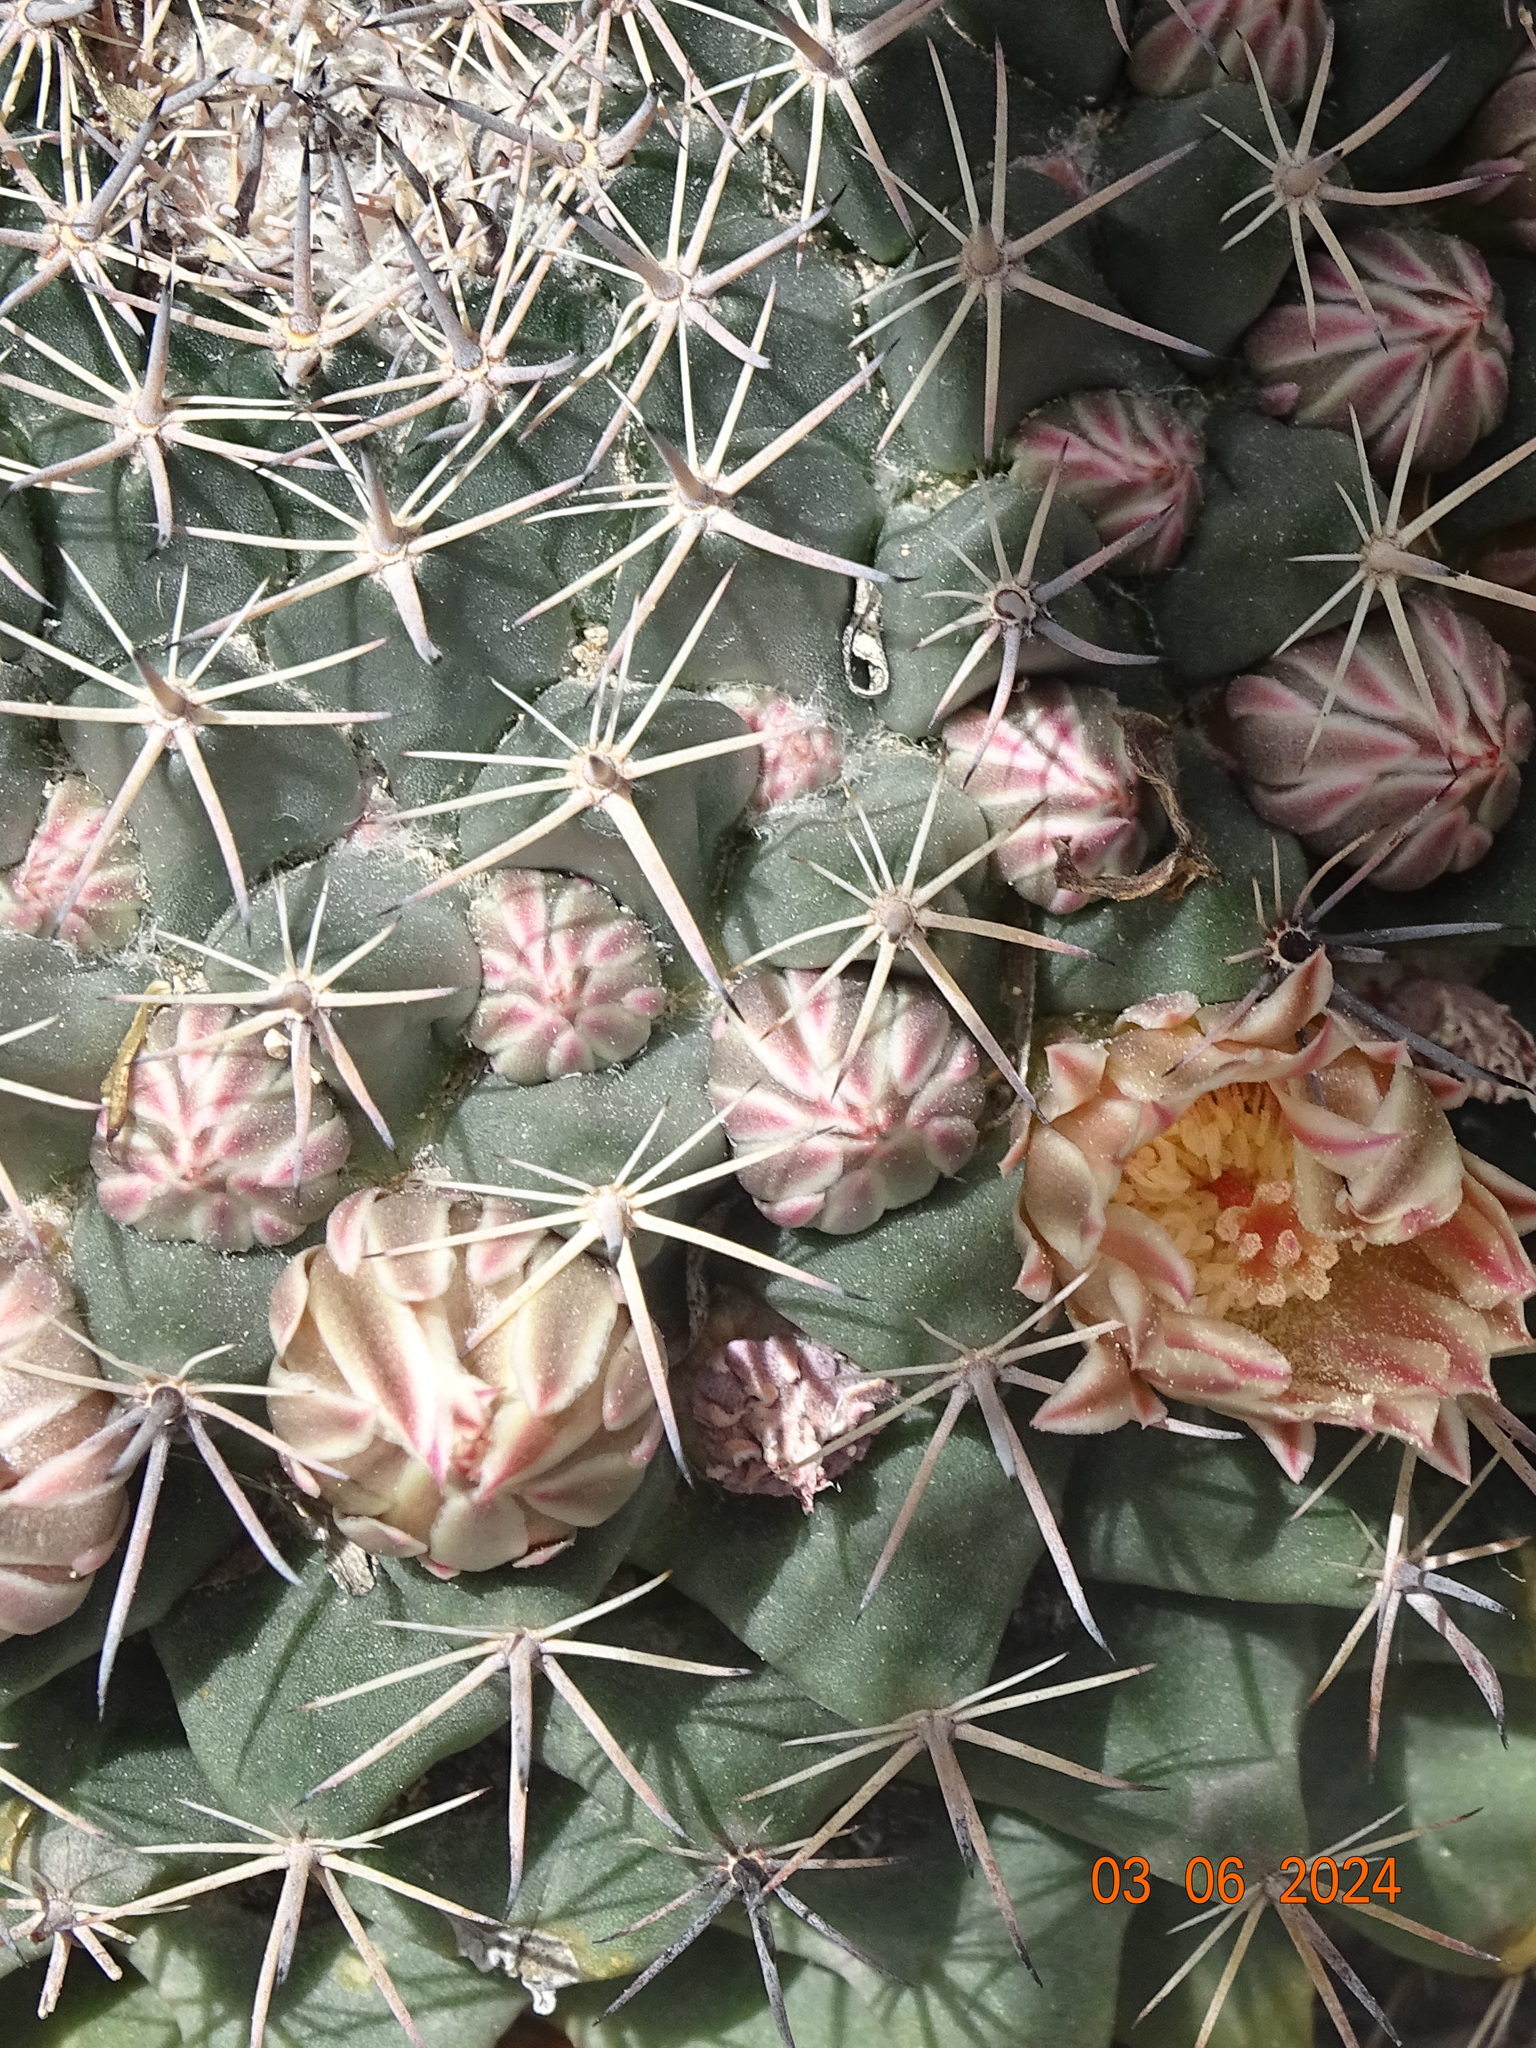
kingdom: Plantae
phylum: Tracheophyta
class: Magnoliopsida
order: Caryophyllales
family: Cactaceae
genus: Mammillaria
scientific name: Mammillaria heyderi
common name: Little nipple cactus
